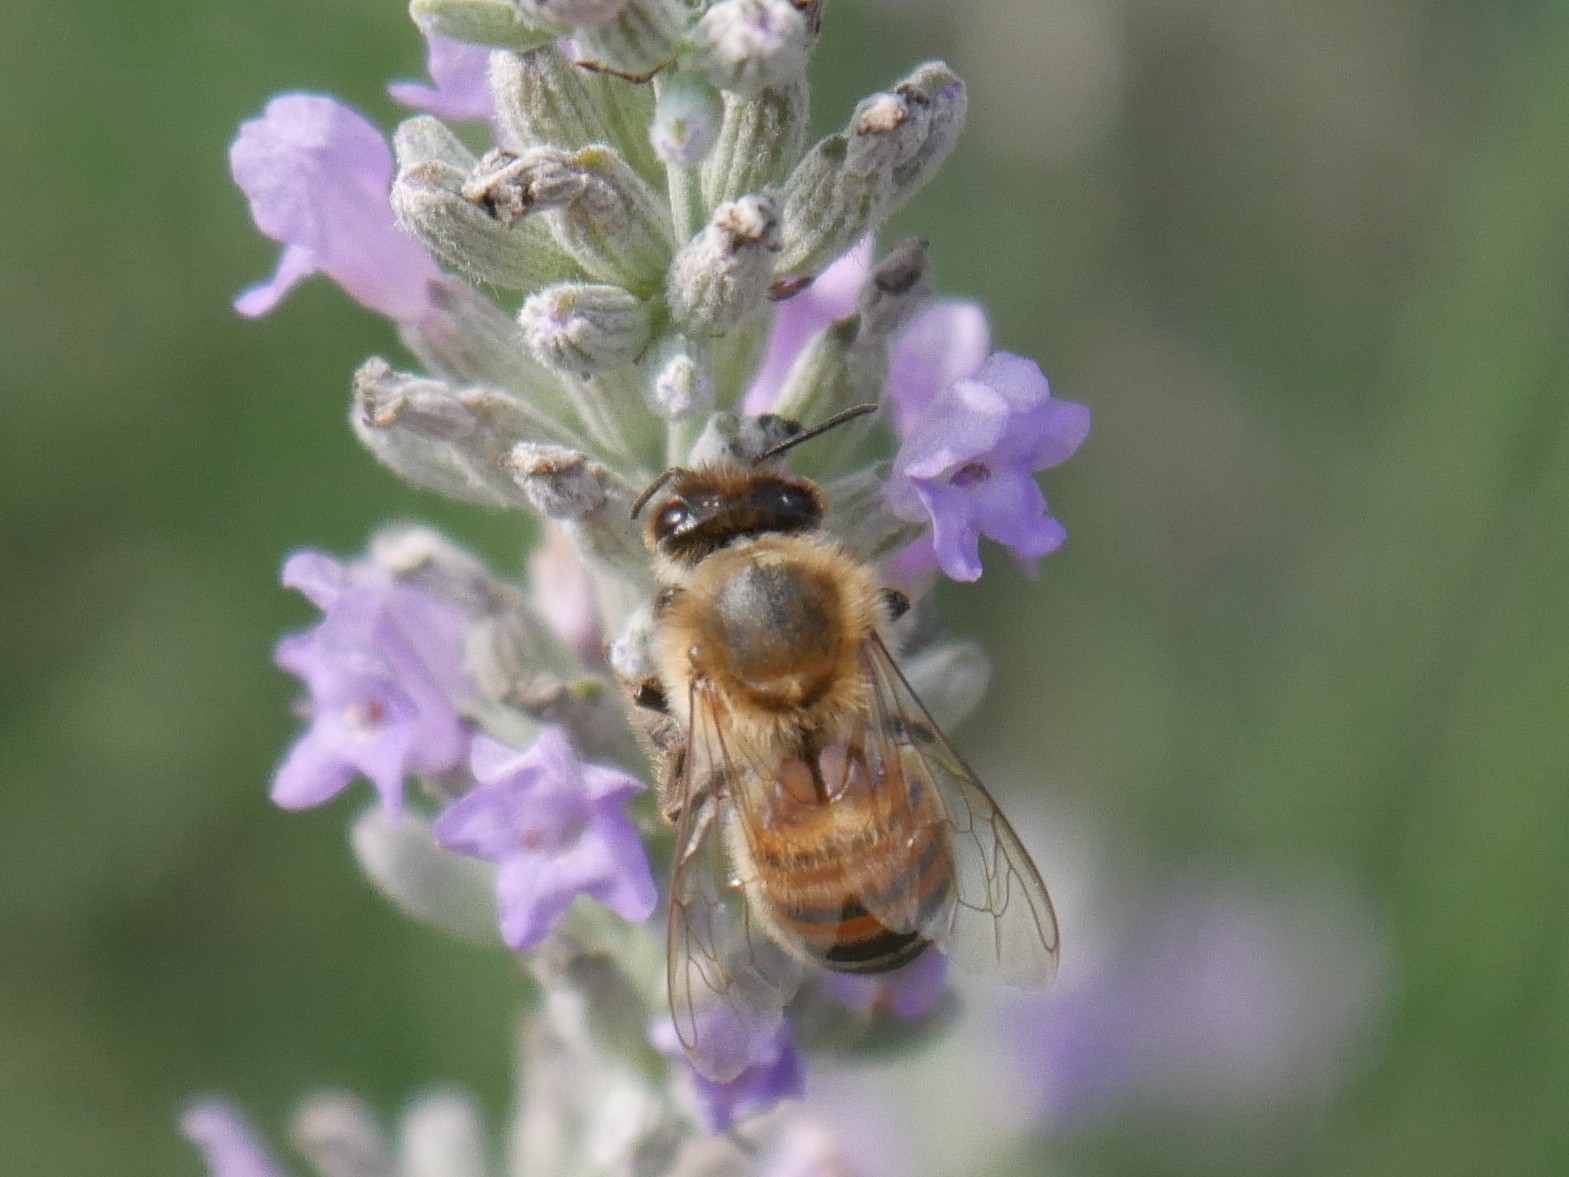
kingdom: Animalia
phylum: Arthropoda
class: Insecta
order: Hymenoptera
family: Apidae
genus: Apis
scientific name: Apis mellifera
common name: Honey bee
